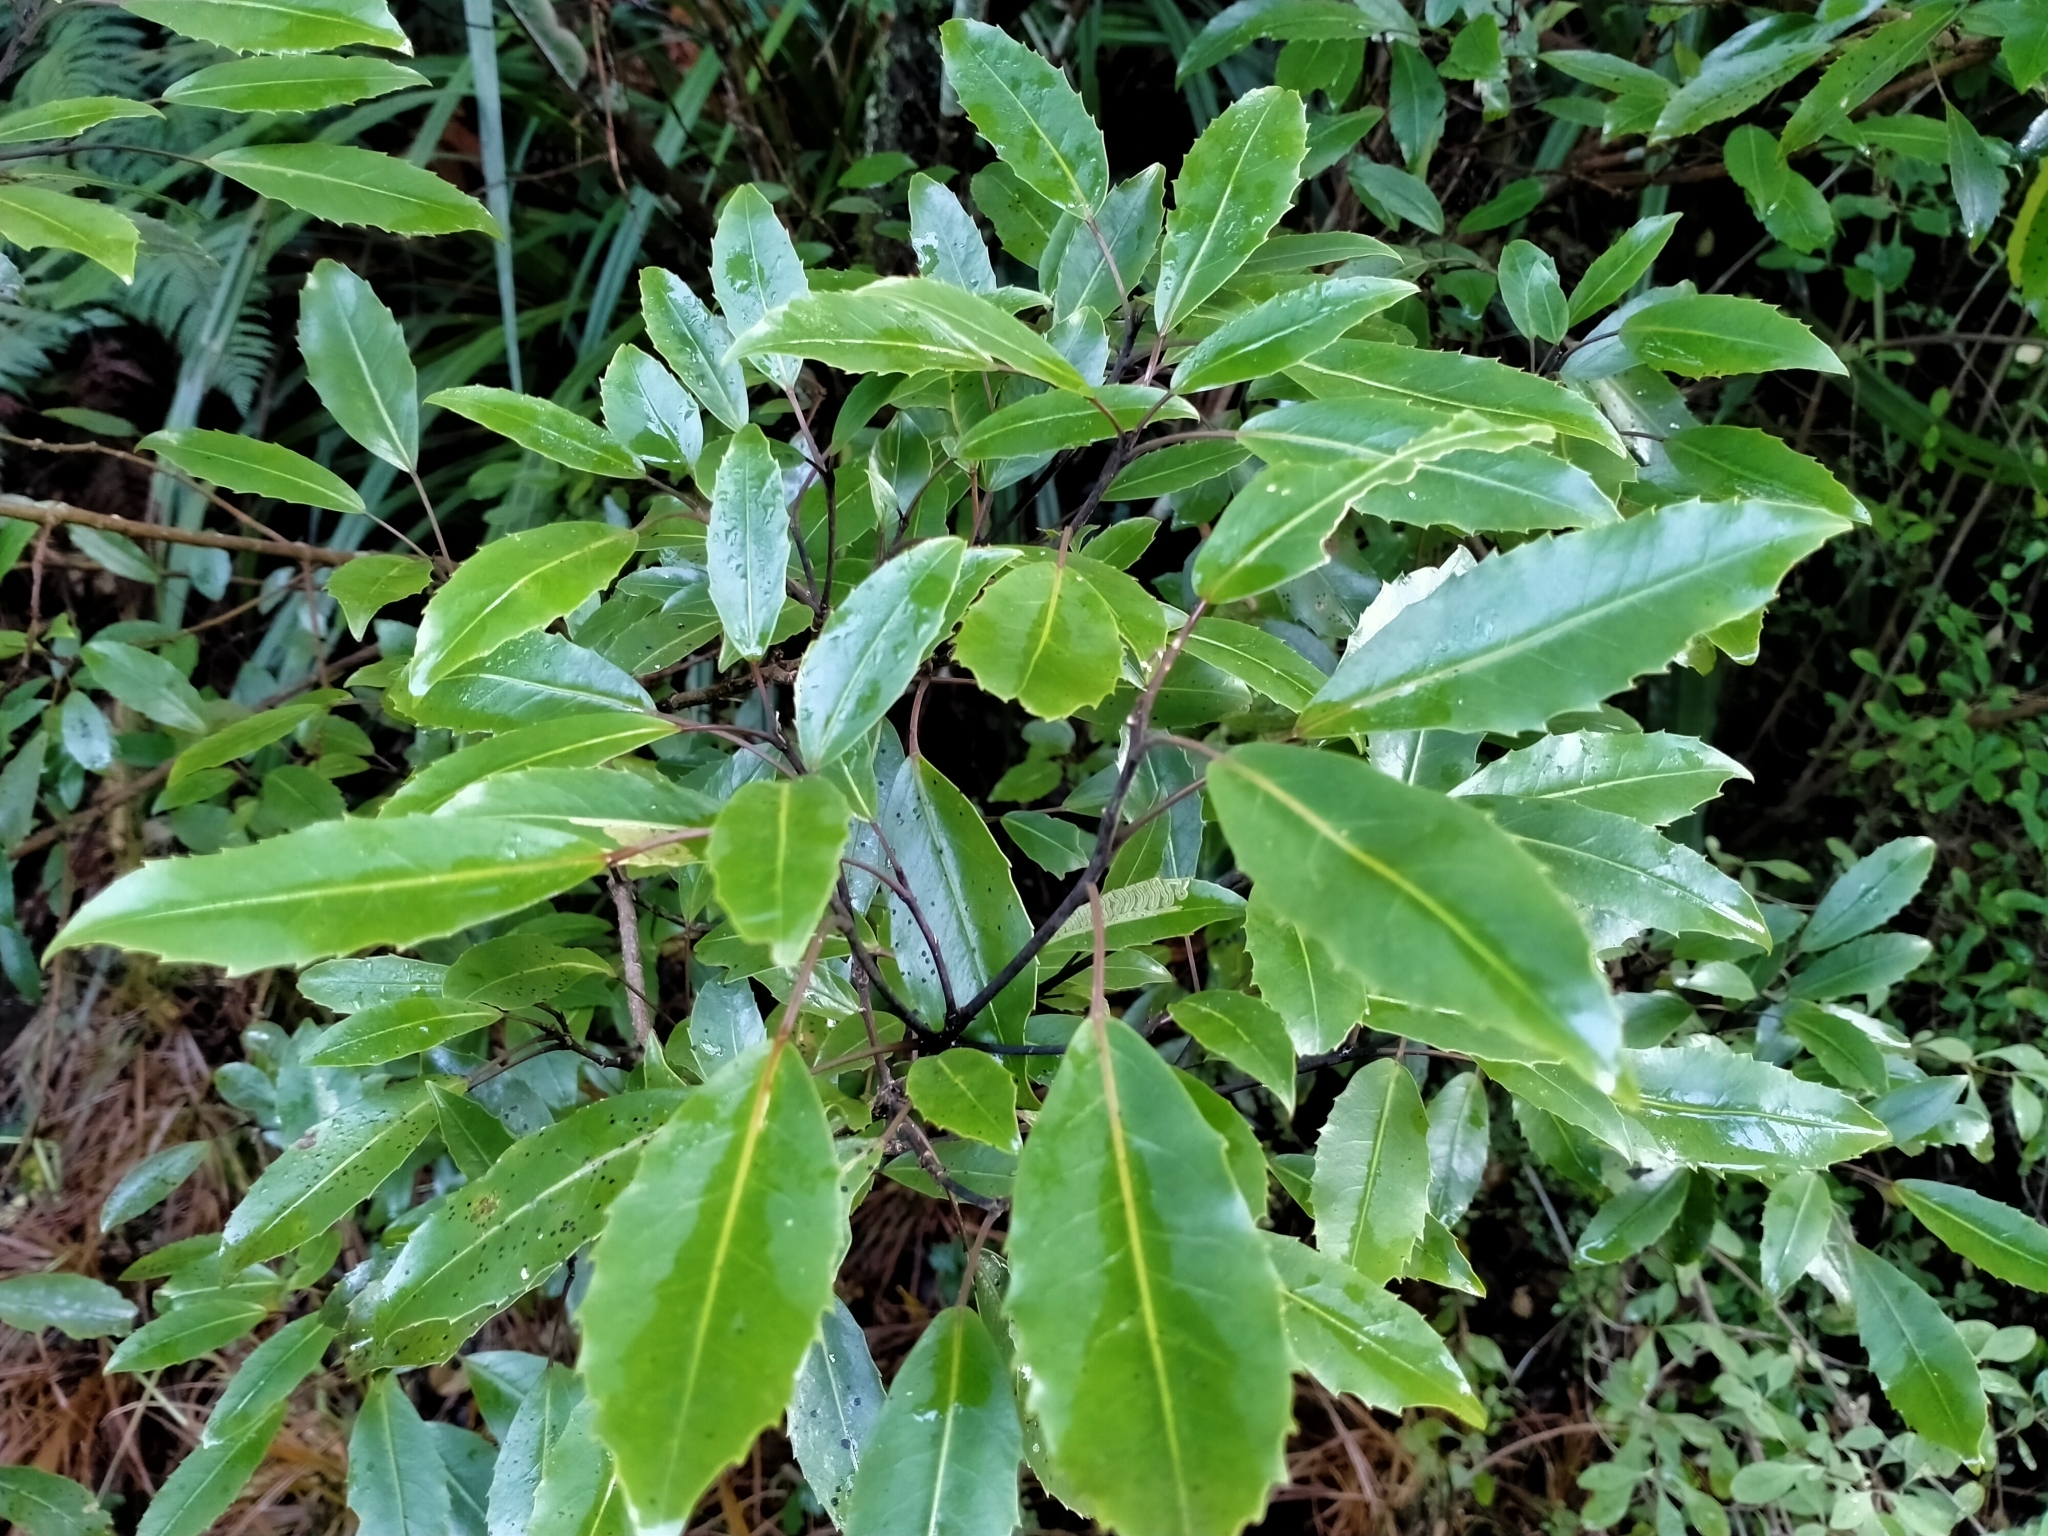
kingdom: Plantae
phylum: Tracheophyta
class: Magnoliopsida
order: Apiales
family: Araliaceae
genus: Raukaua
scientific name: Raukaua simplex
